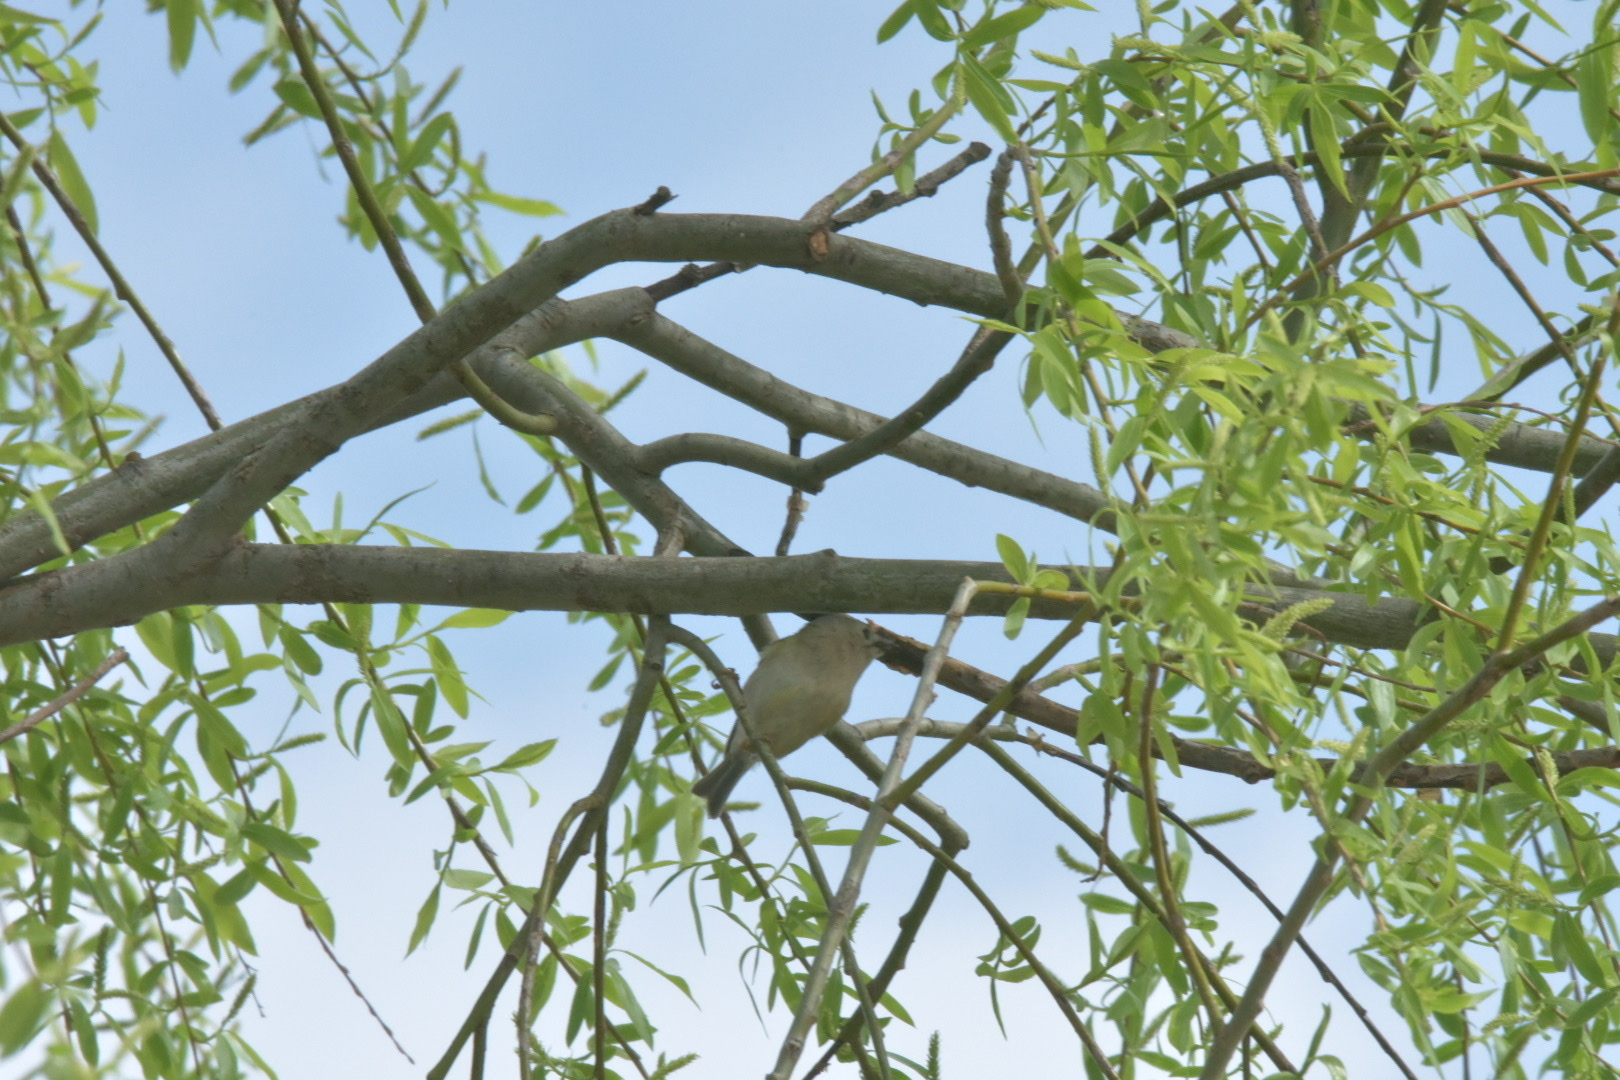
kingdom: Animalia
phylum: Chordata
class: Aves
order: Passeriformes
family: Regulidae
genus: Regulus
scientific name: Regulus regulus
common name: Goldcrest
